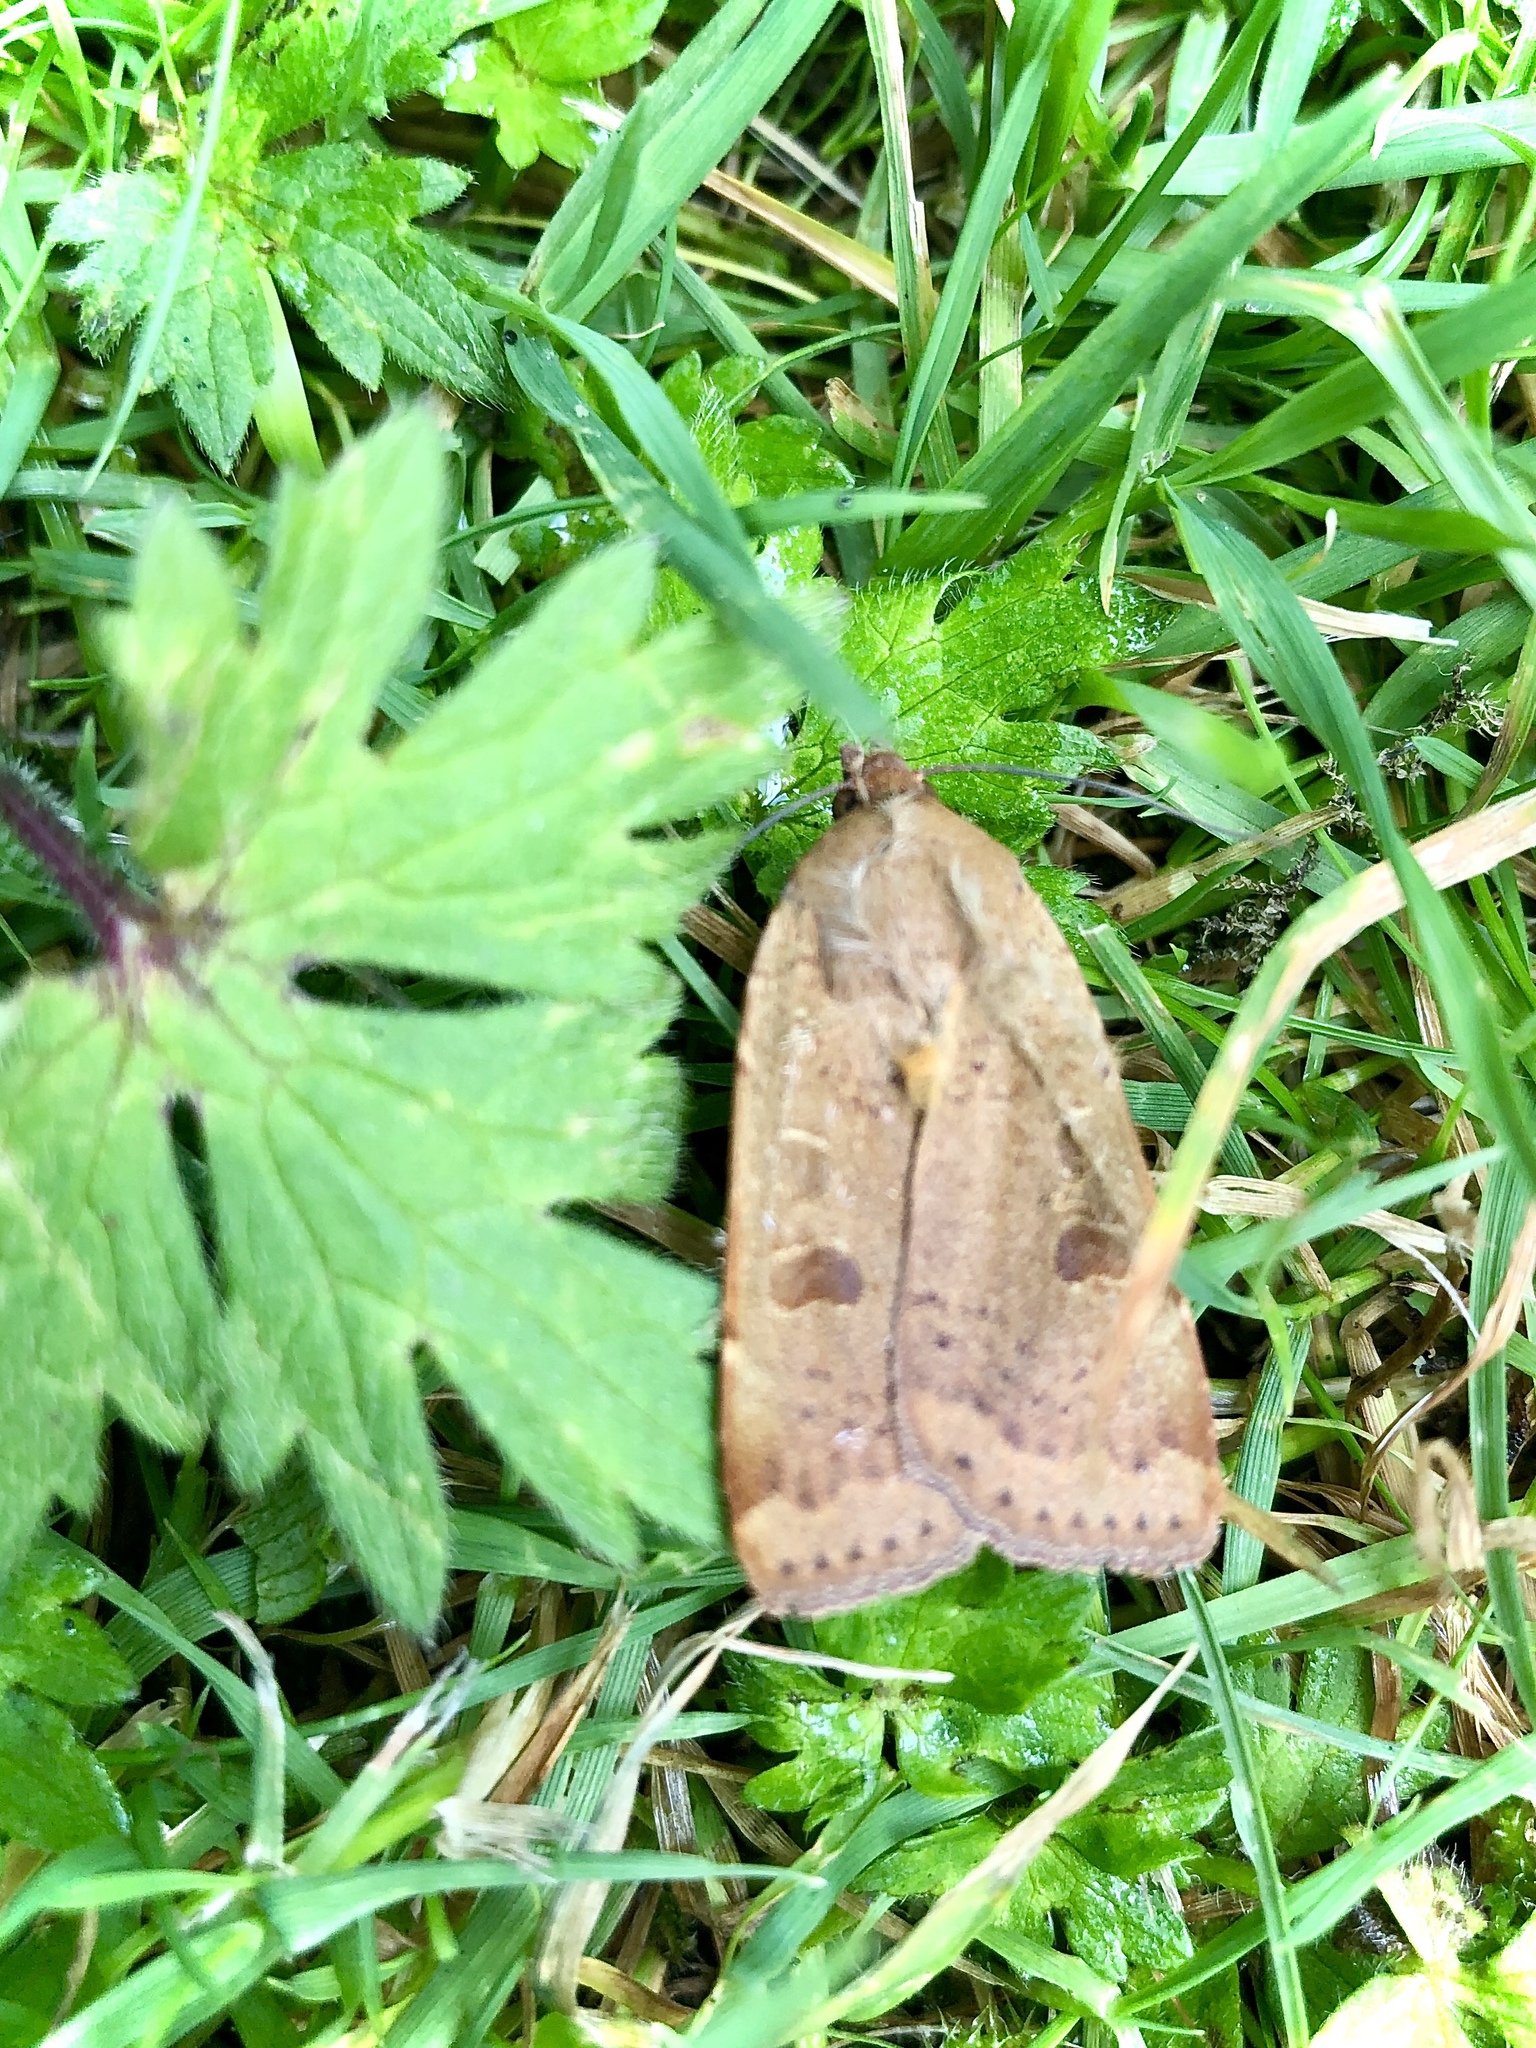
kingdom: Animalia
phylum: Arthropoda
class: Insecta
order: Lepidoptera
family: Noctuidae
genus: Noctua
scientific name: Noctua comes
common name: Lesser yellow underwing
